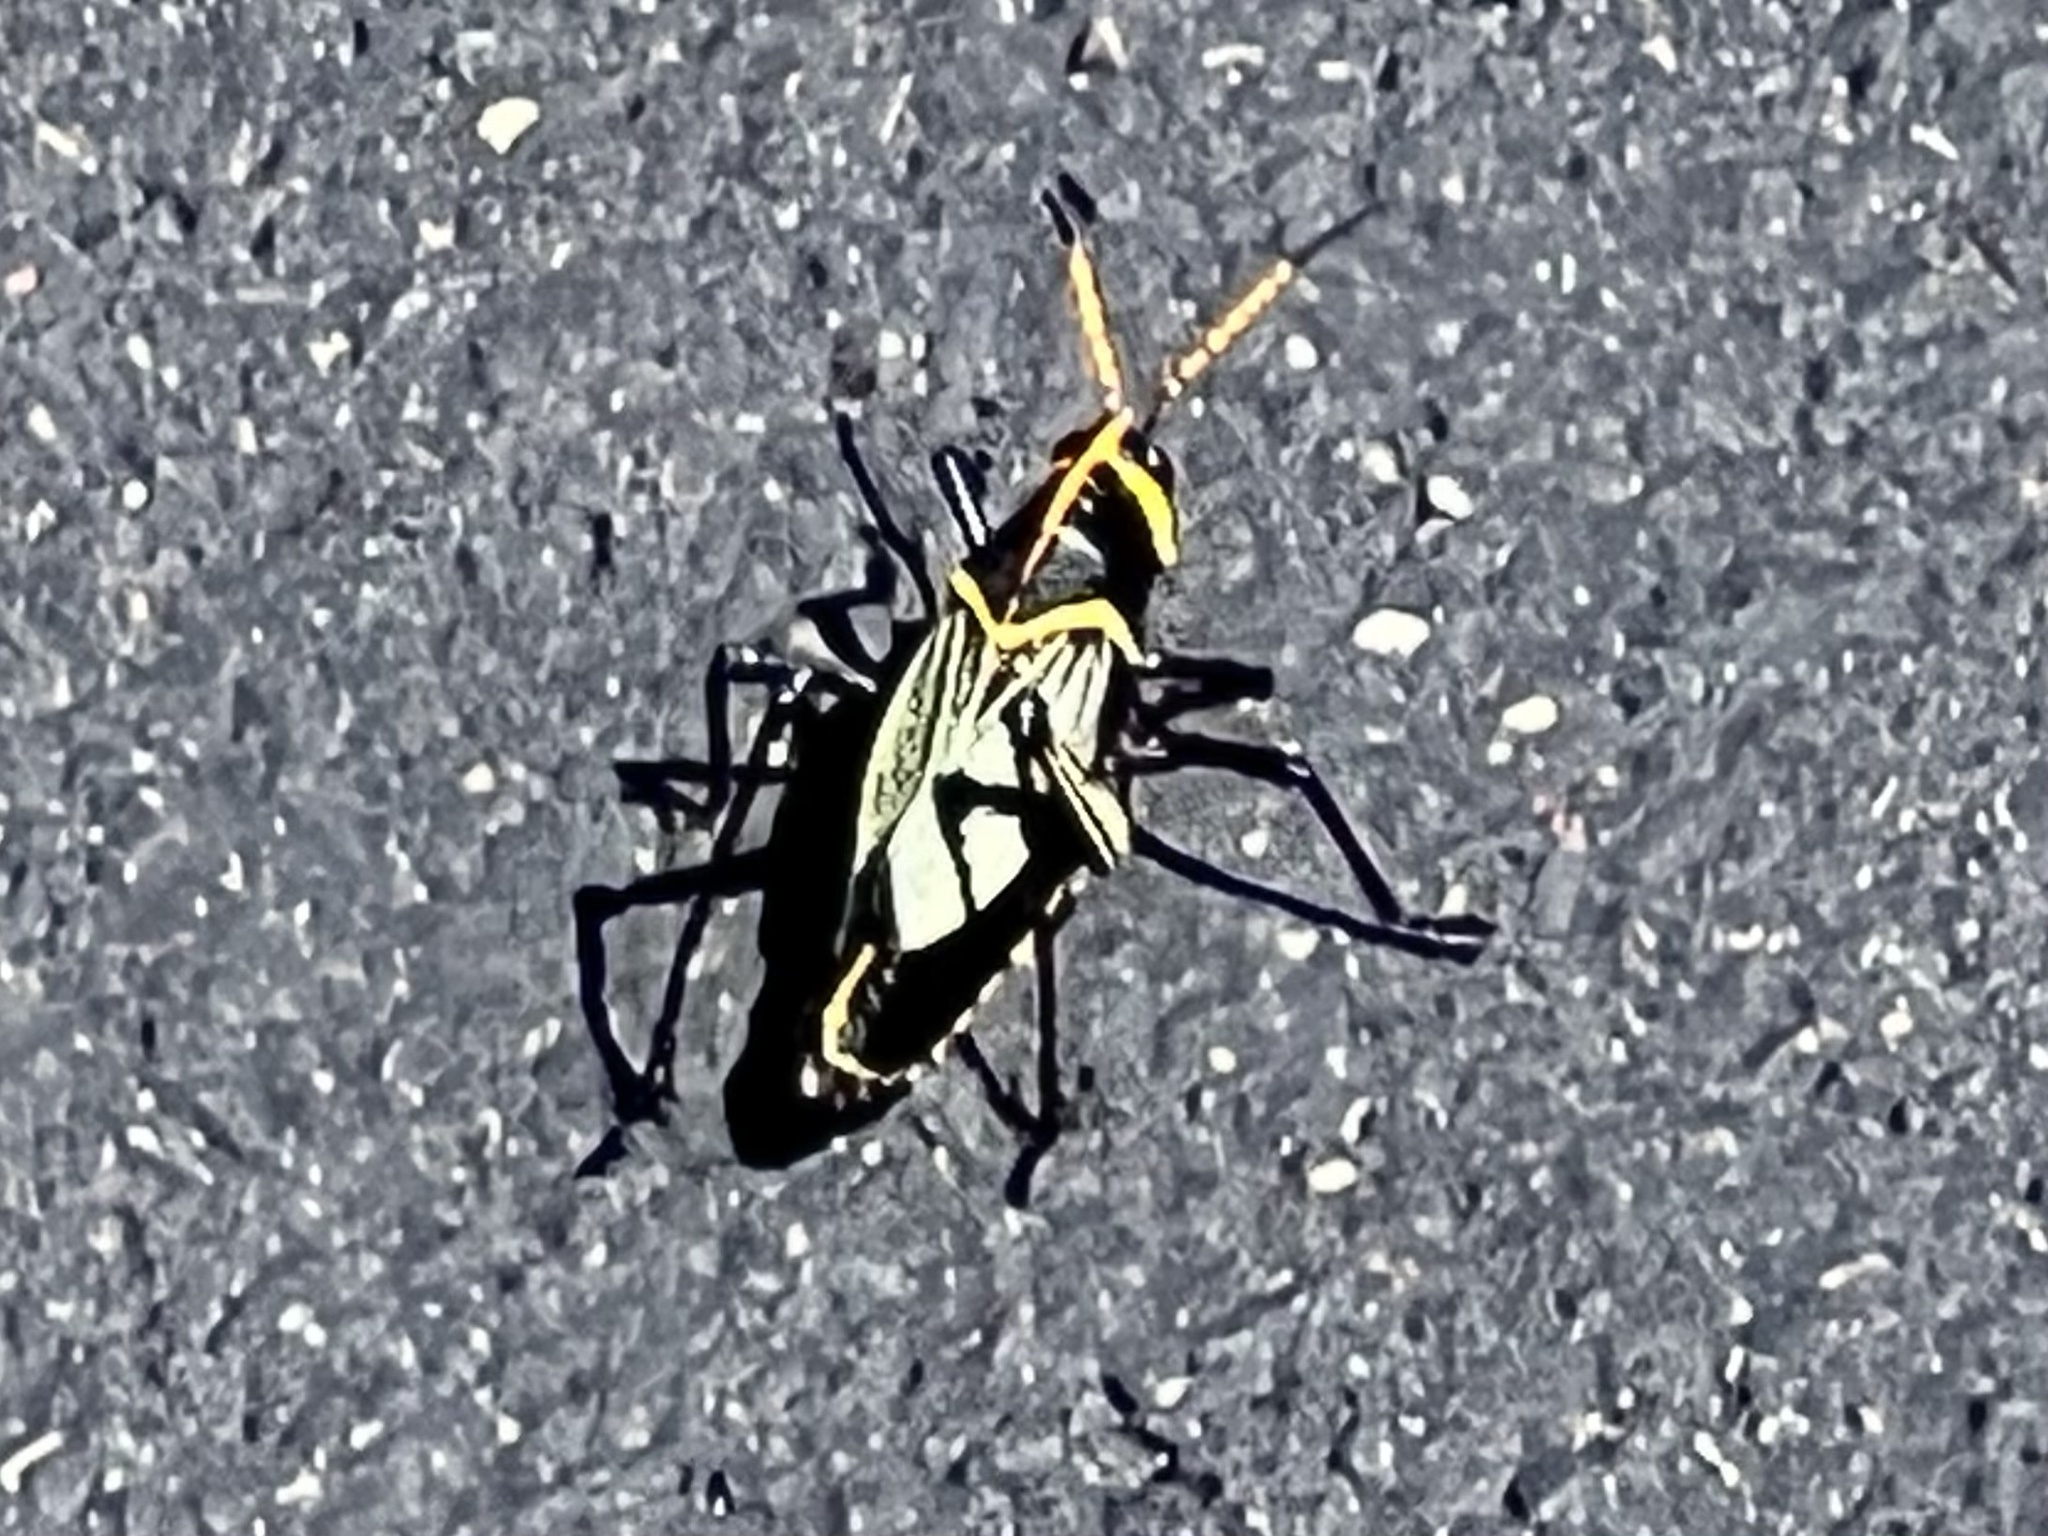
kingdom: Animalia
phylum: Arthropoda
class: Insecta
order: Orthoptera
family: Romaleidae
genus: Romalea
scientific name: Romalea
